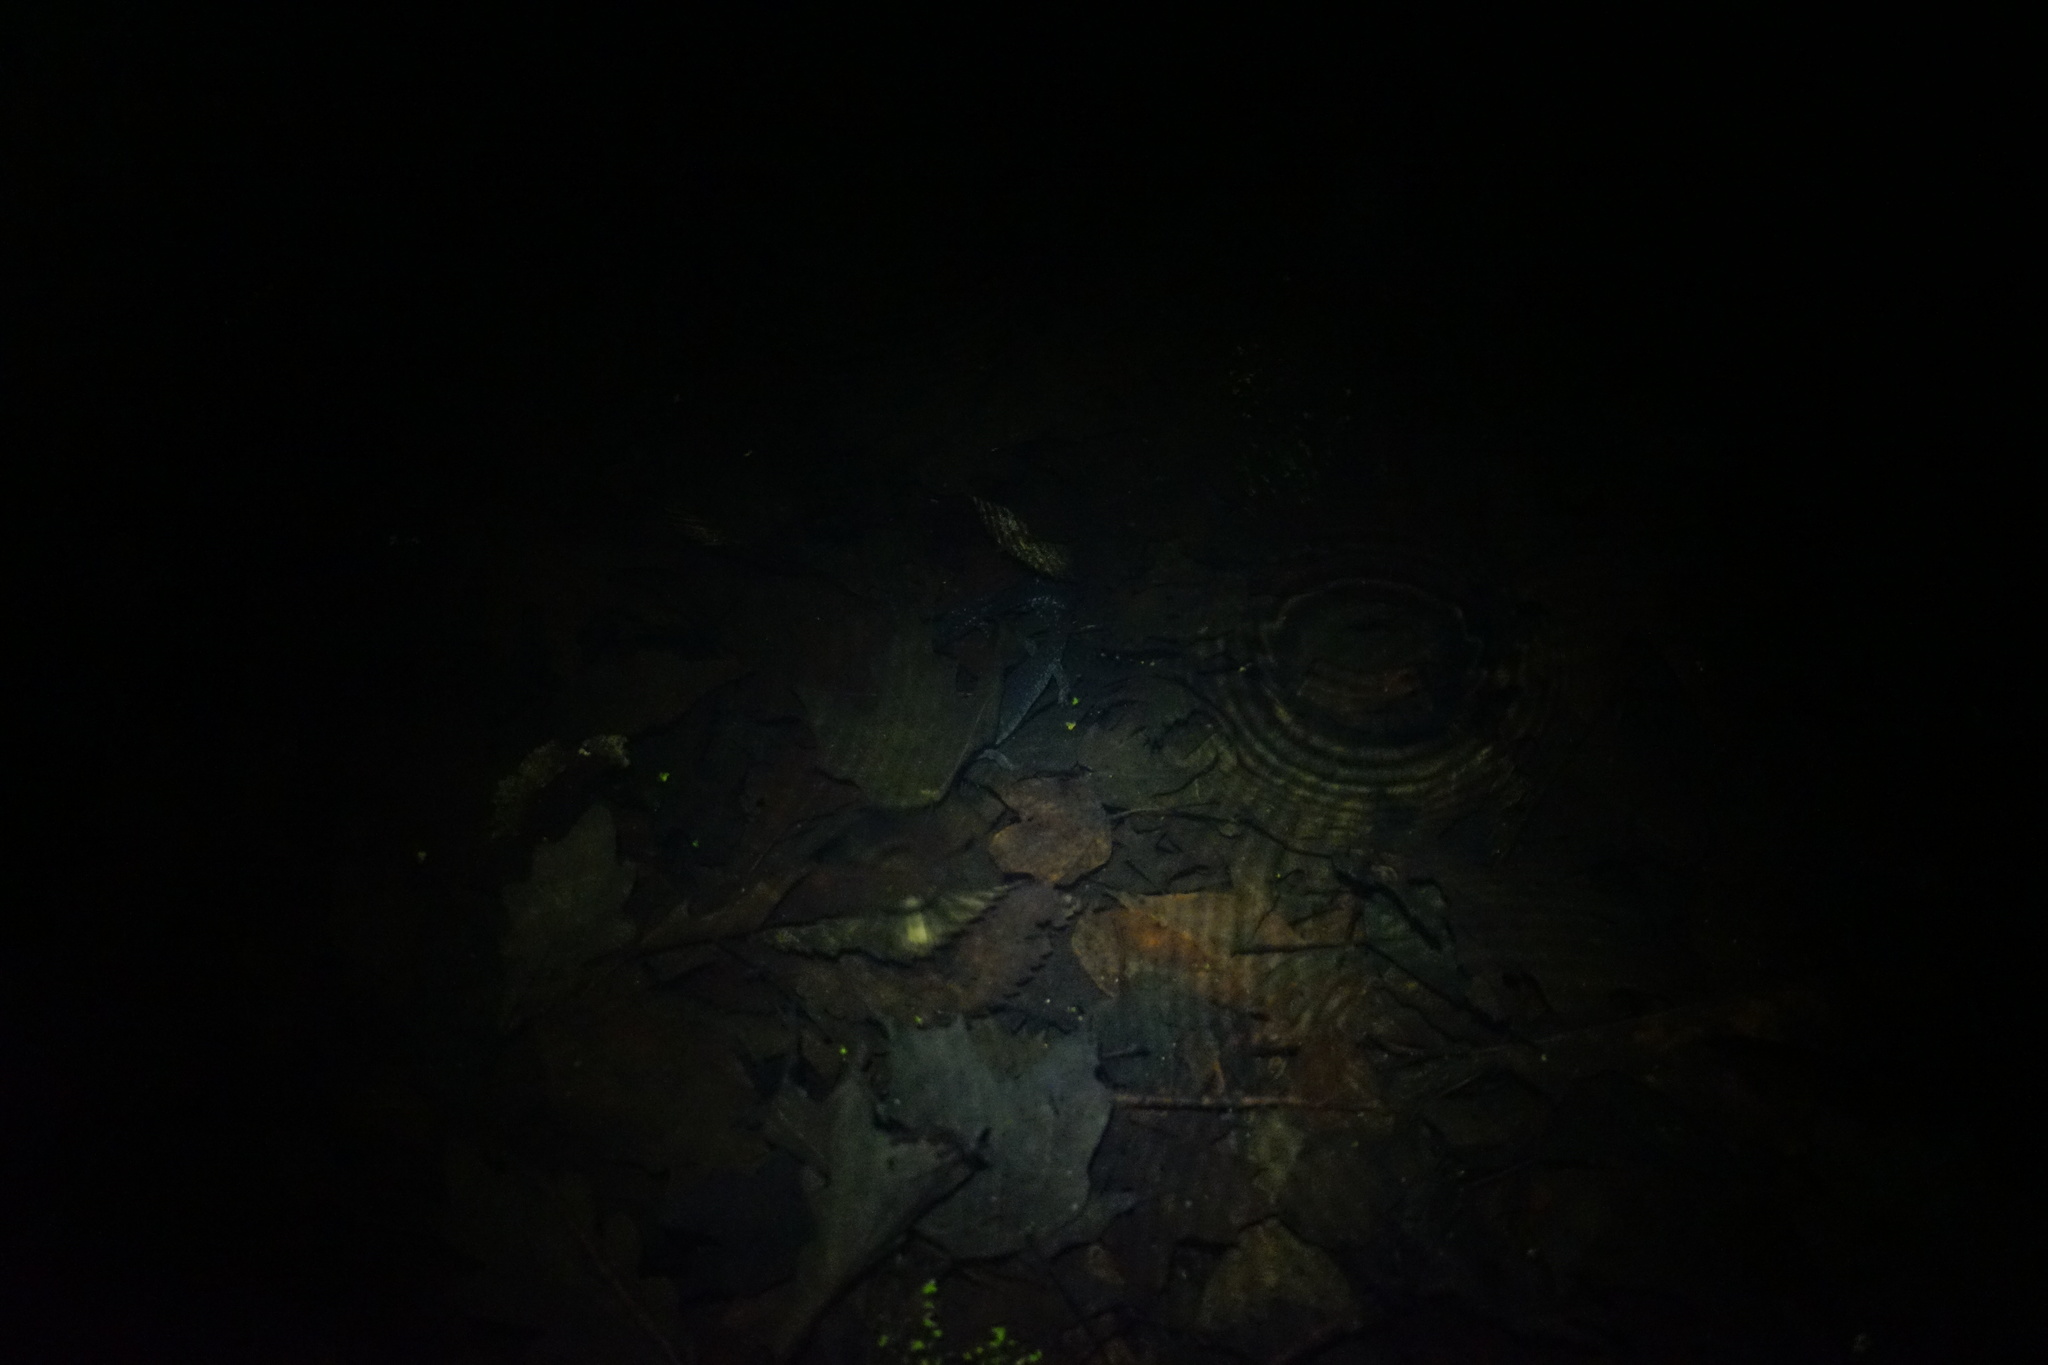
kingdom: Animalia
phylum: Chordata
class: Amphibia
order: Caudata
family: Ambystomatidae
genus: Ambystoma
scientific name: Ambystoma laterale
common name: Blue-spotted salamander
